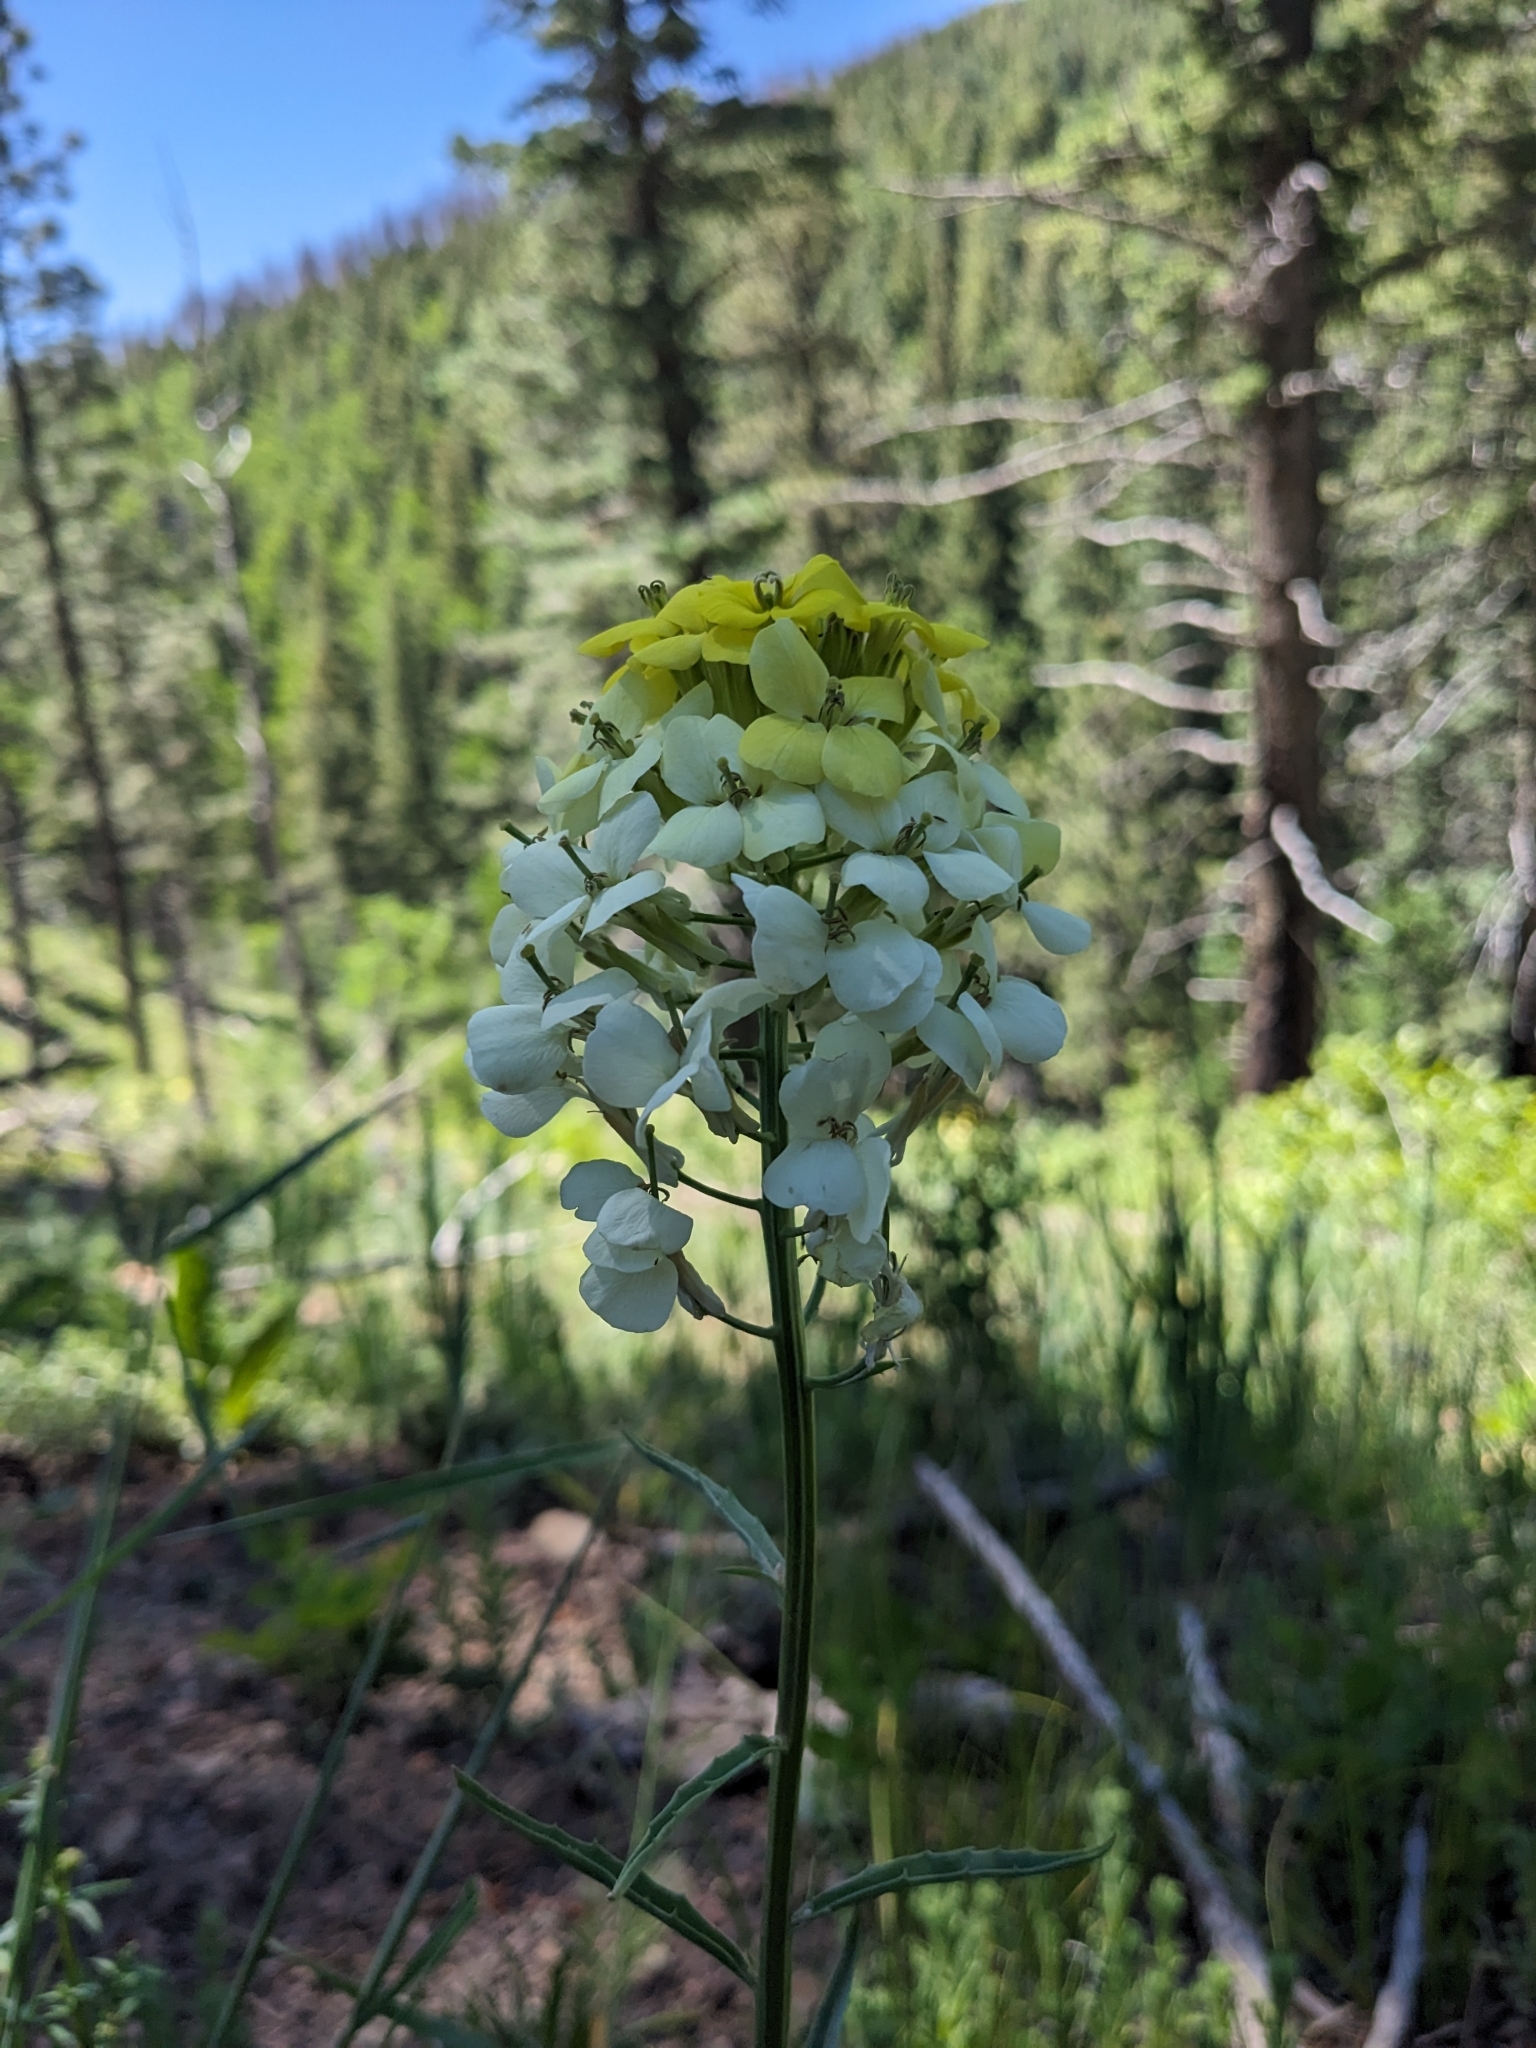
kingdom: Plantae
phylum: Tracheophyta
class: Magnoliopsida
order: Brassicales
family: Brassicaceae
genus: Erysimum
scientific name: Erysimum capitatum
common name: Western wallflower
